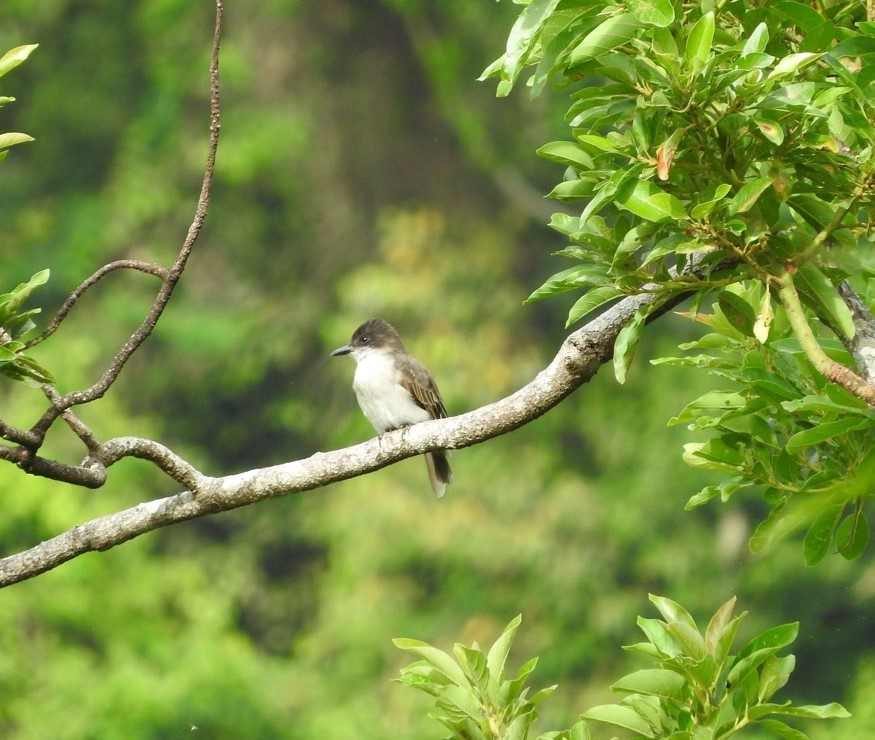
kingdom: Animalia
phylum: Chordata
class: Aves
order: Passeriformes
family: Tyrannidae
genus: Tyrannus
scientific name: Tyrannus caudifasciatus
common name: Loggerhead kingbird
